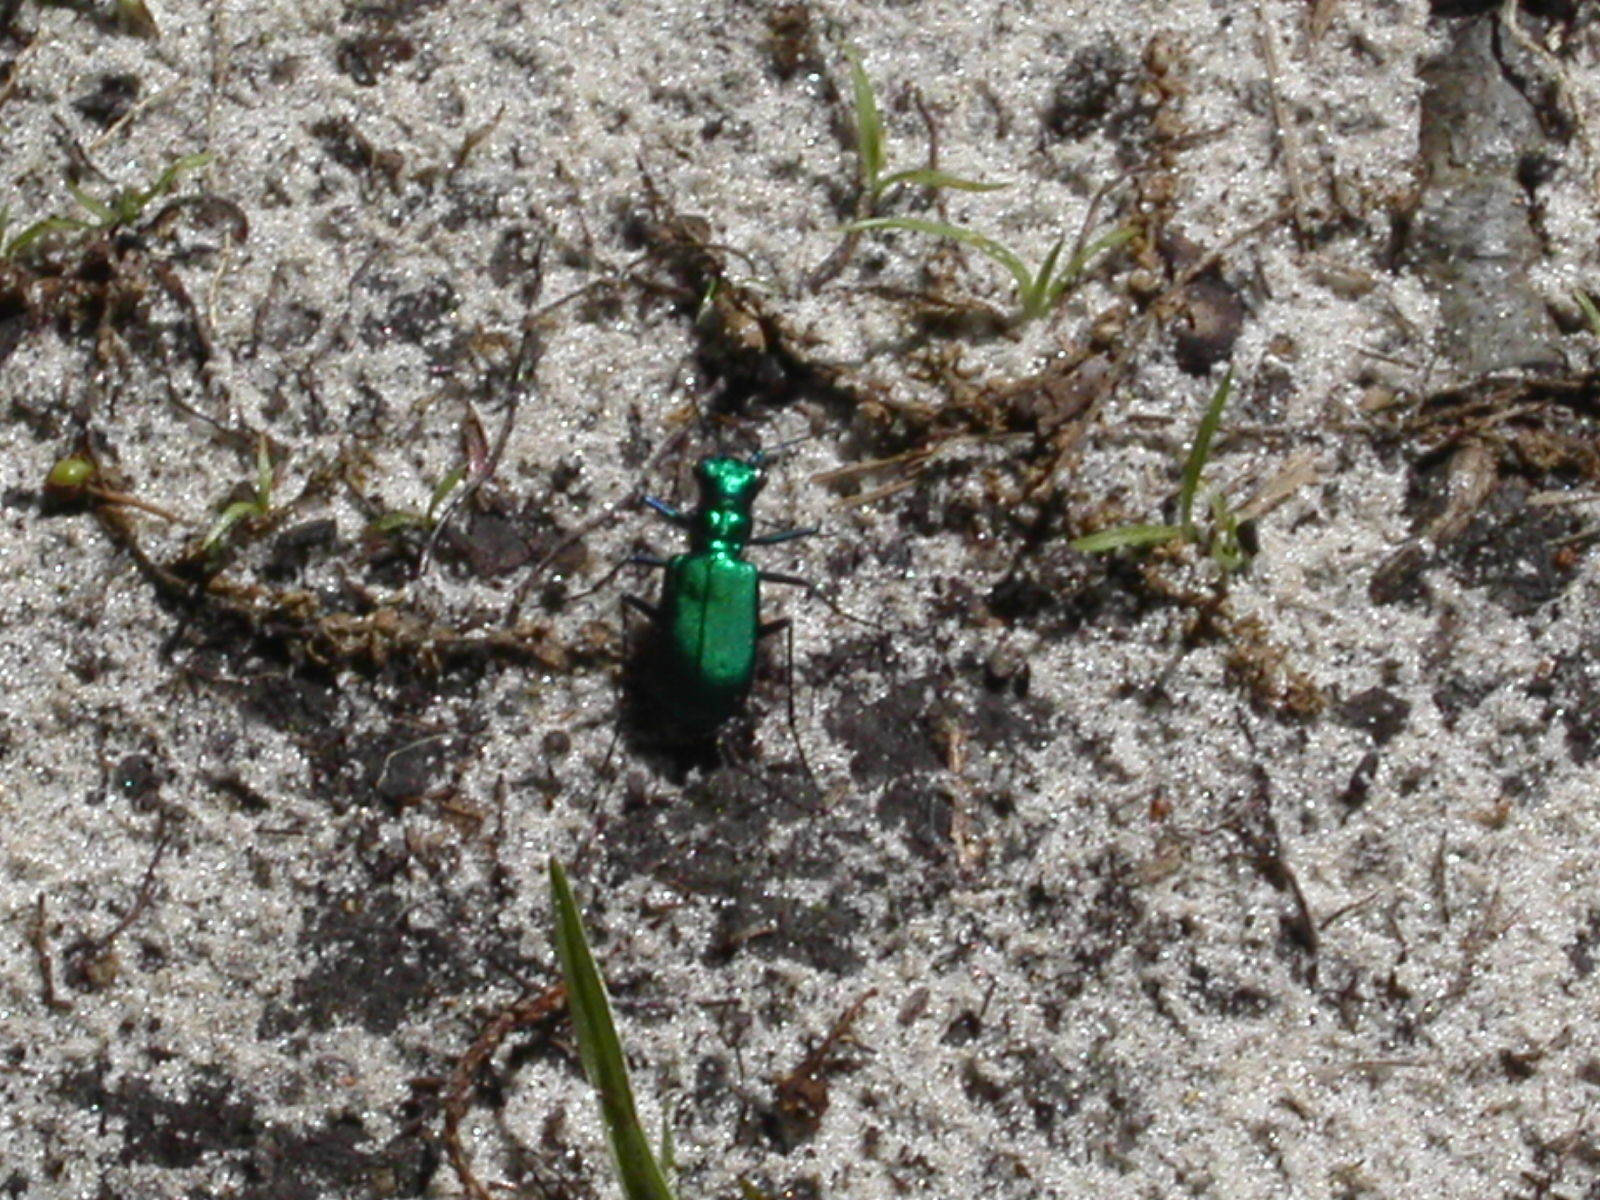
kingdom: Animalia
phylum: Arthropoda
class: Insecta
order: Coleoptera
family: Carabidae
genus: Cicindela
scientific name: Cicindela sexguttata
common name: Six-spotted tiger beetle
